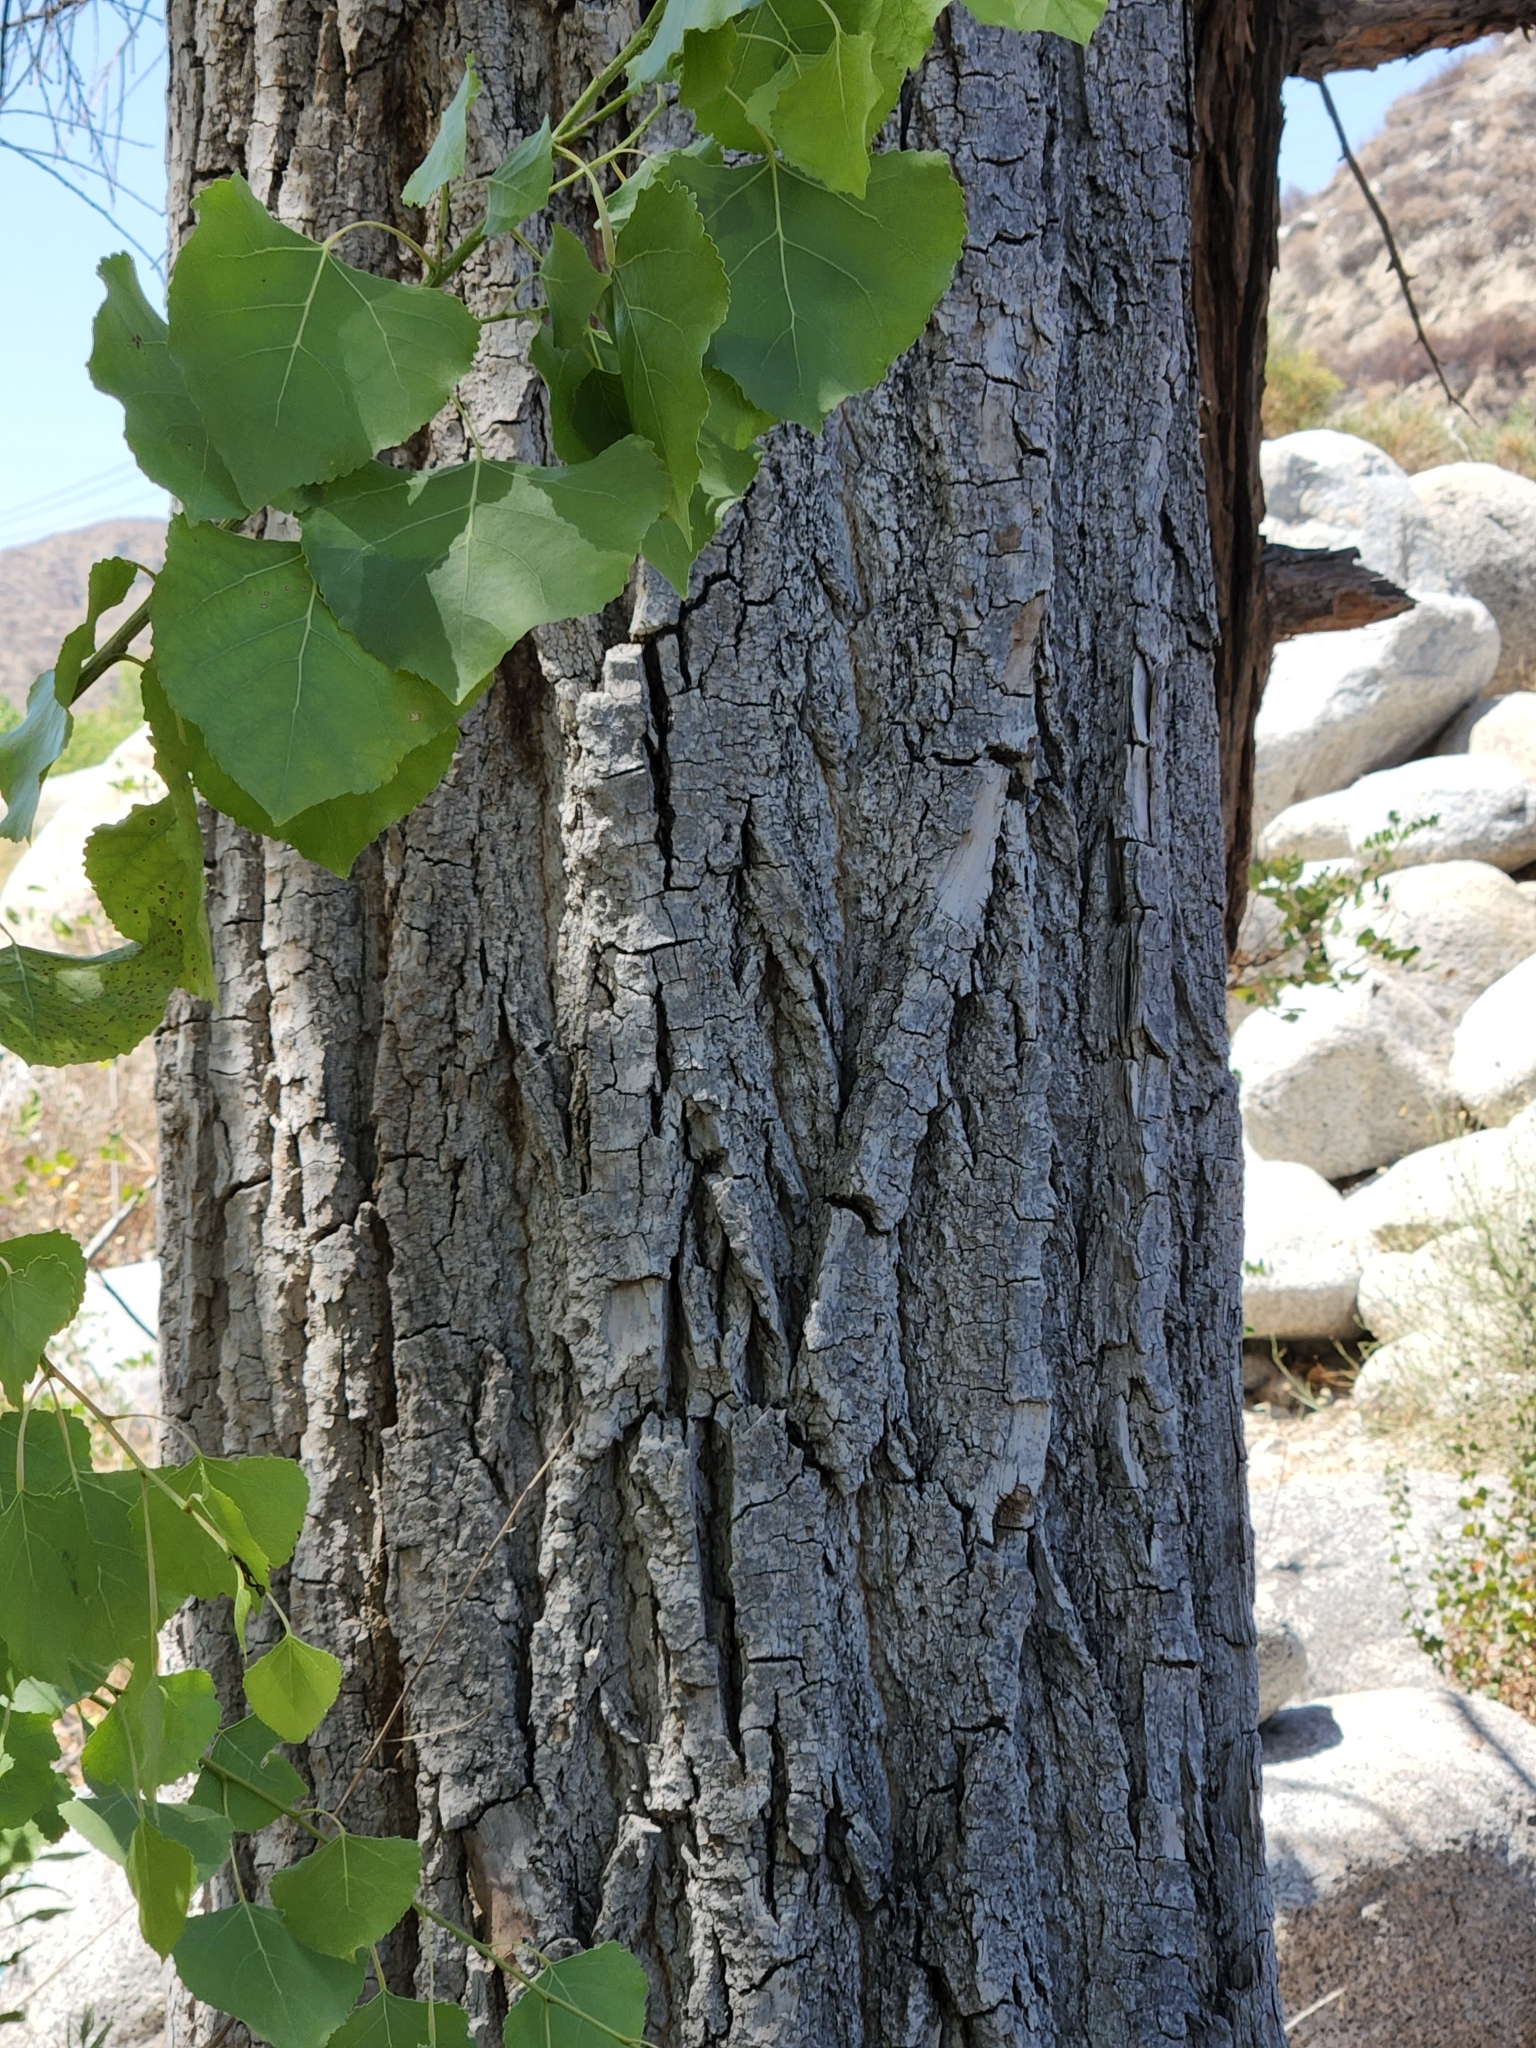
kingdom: Plantae
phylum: Tracheophyta
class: Magnoliopsida
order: Malpighiales
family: Salicaceae
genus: Populus
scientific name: Populus fremontii
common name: Fremont's cottonwood
